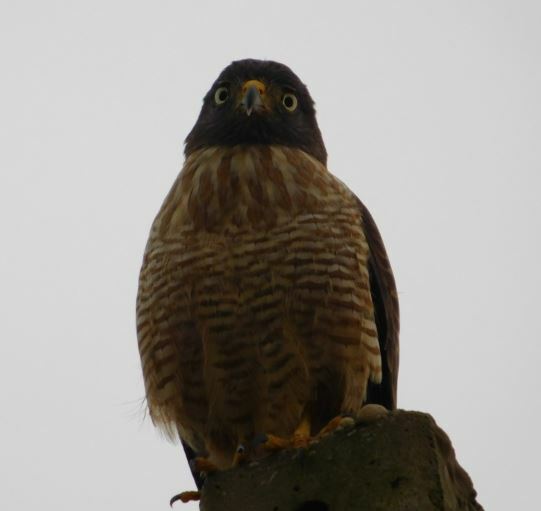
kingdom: Animalia
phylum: Chordata
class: Aves
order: Accipitriformes
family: Accipitridae
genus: Rupornis
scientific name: Rupornis magnirostris
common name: Roadside hawk
